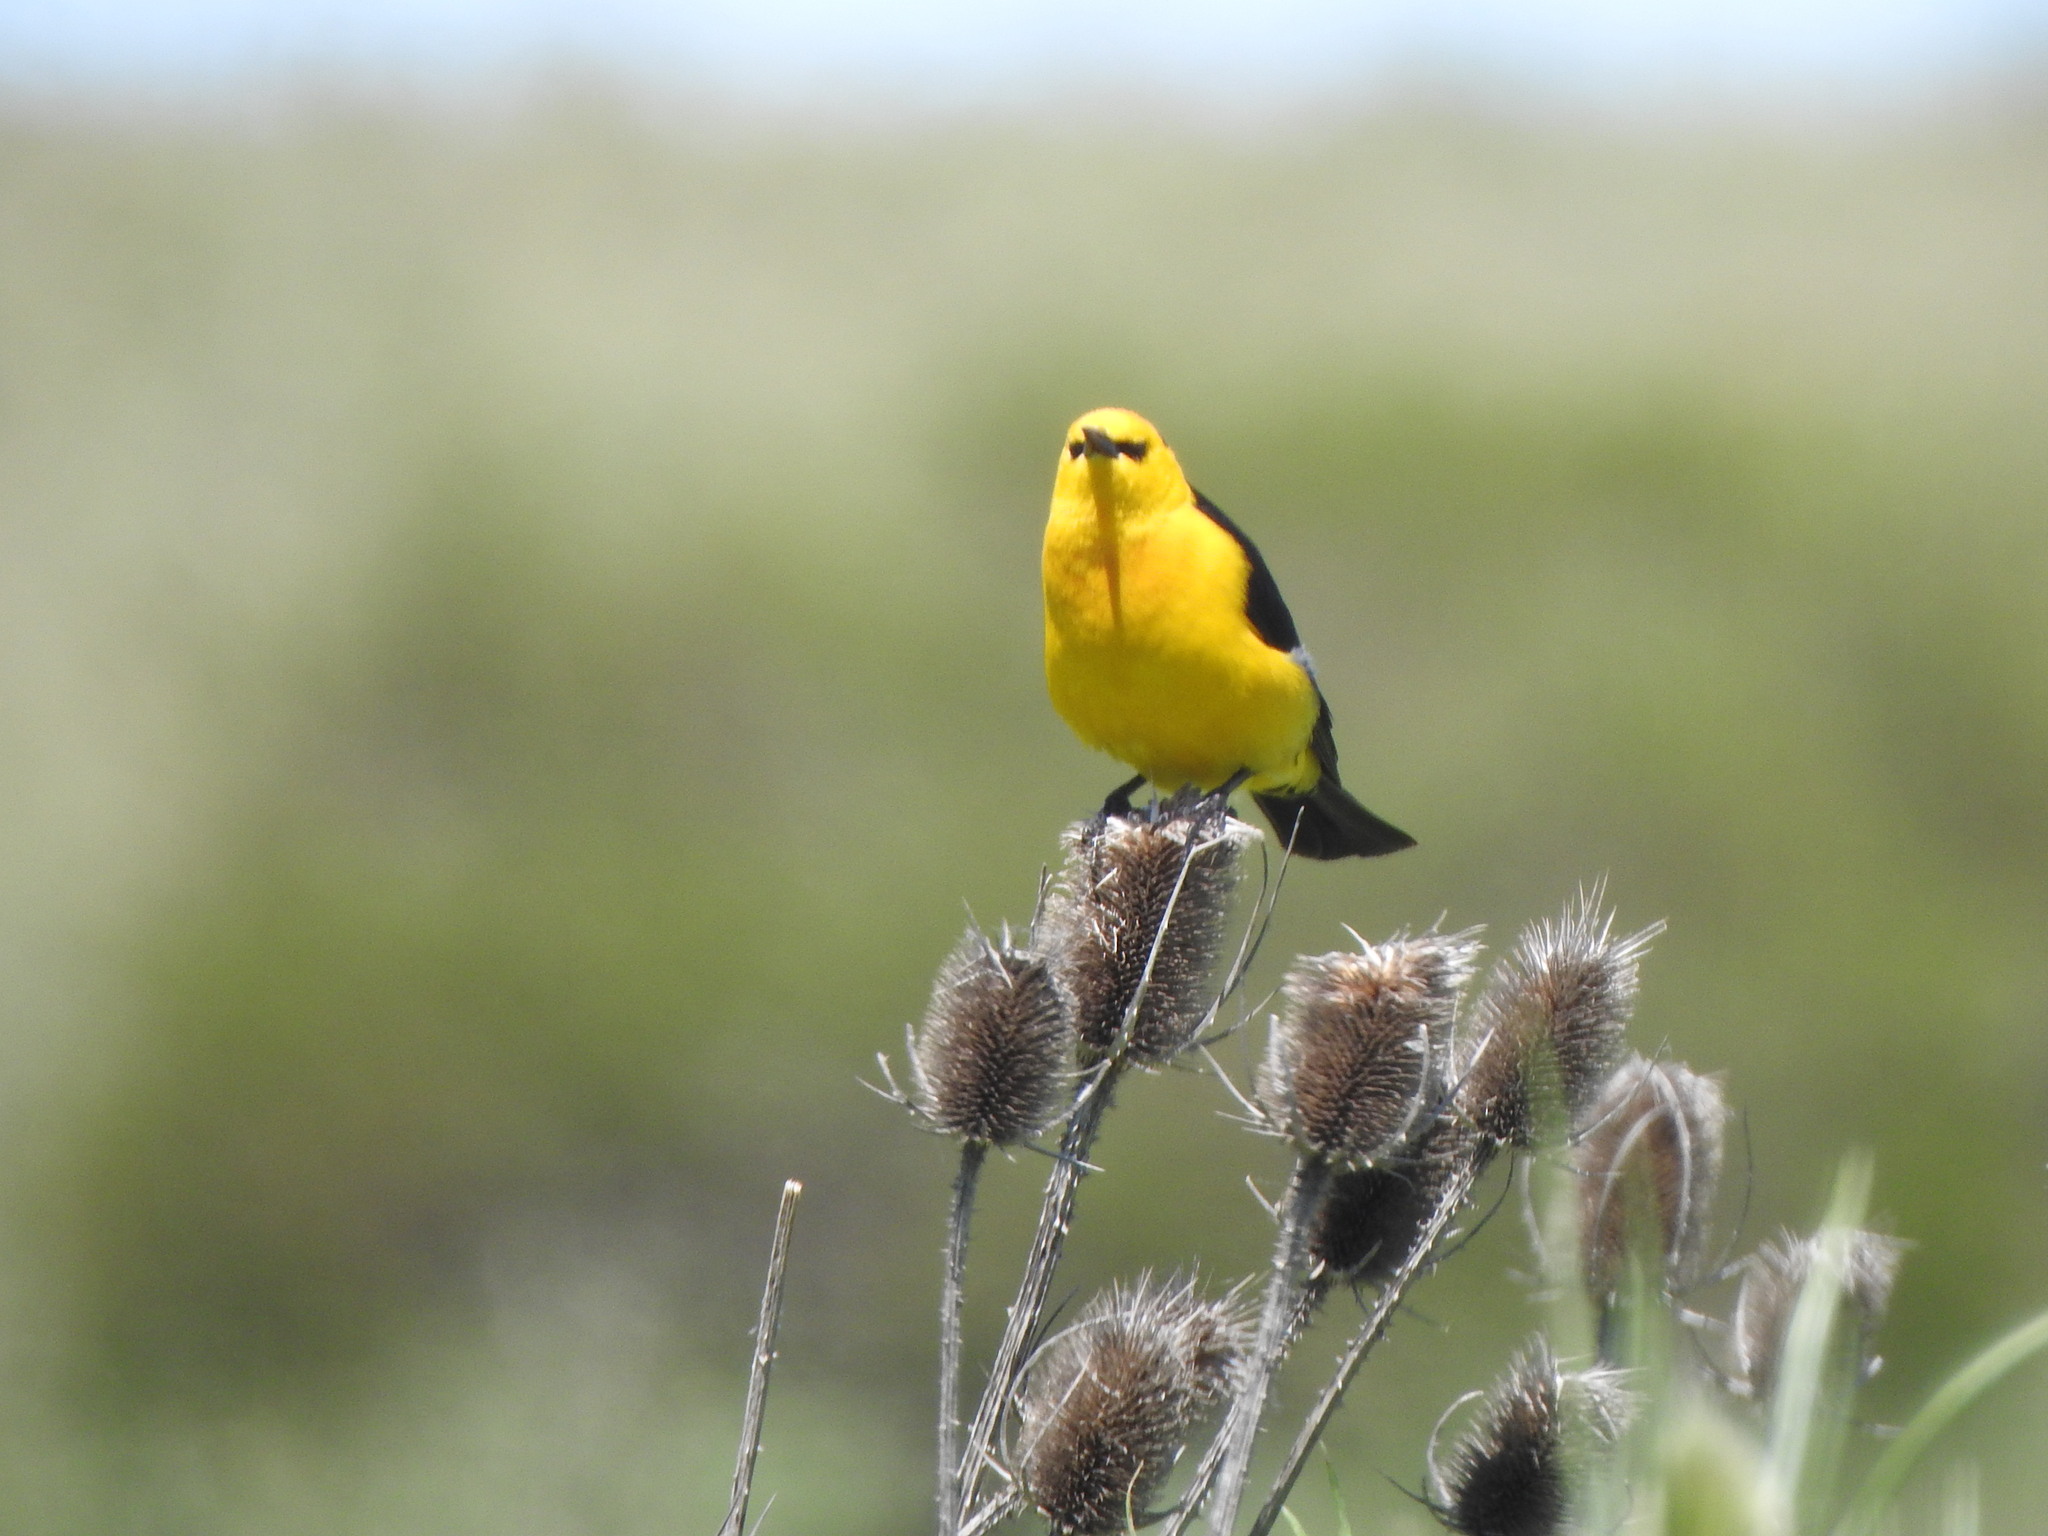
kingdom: Animalia
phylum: Chordata
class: Aves
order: Passeriformes
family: Icteridae
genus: Xanthopsar
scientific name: Xanthopsar flavus
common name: Saffron-cowled blackbird
